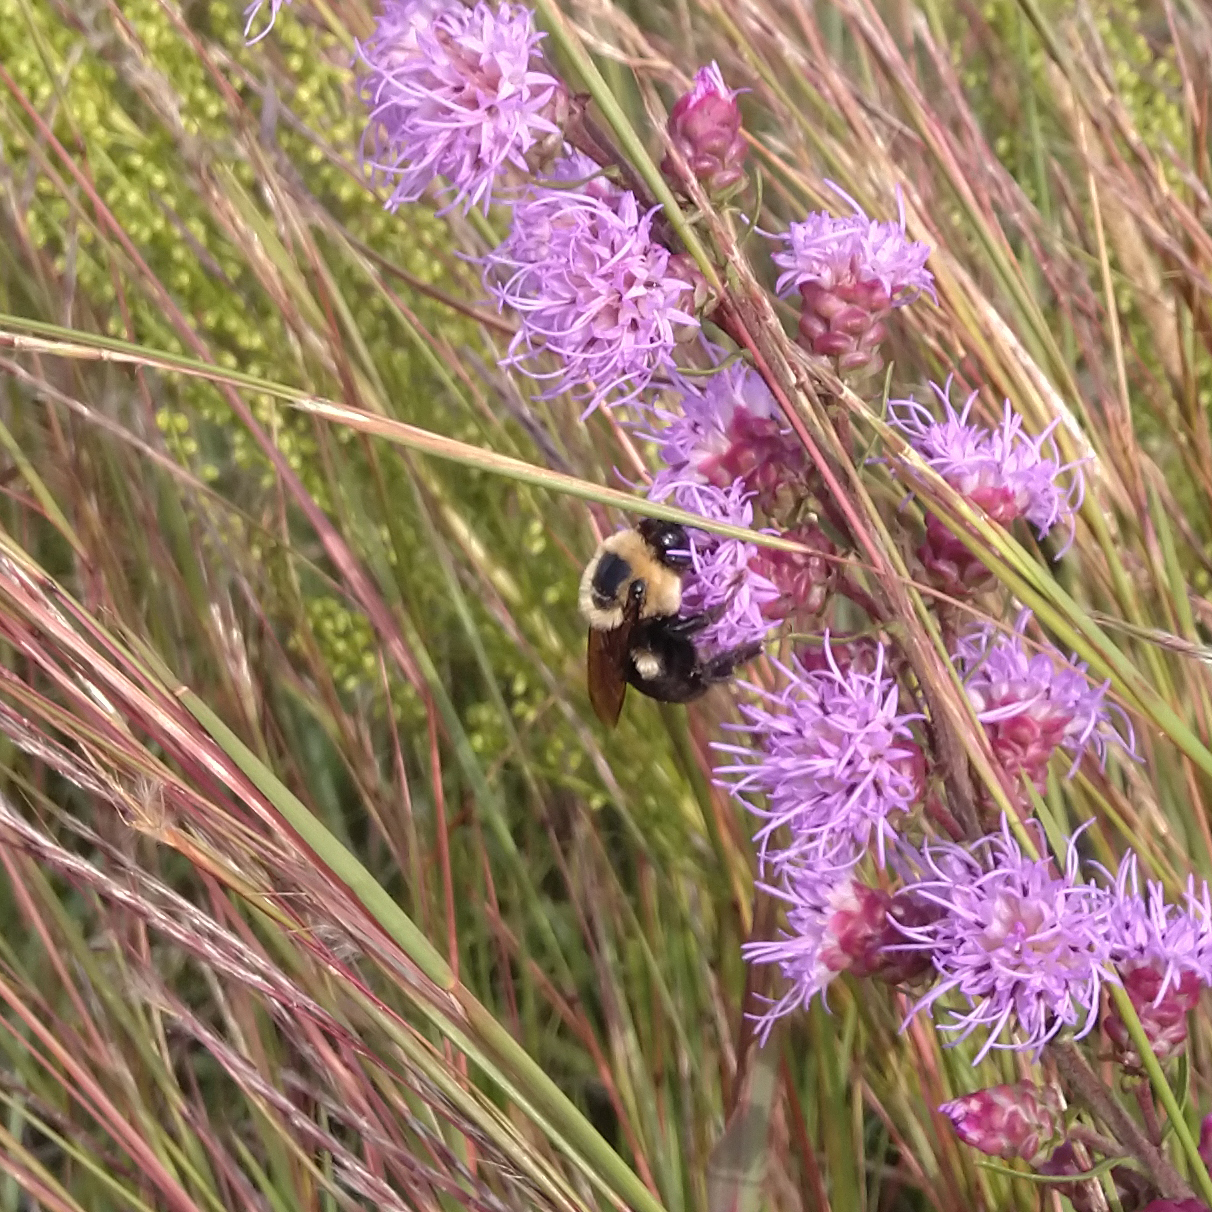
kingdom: Animalia
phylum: Arthropoda
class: Insecta
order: Hymenoptera
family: Apidae
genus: Bombus
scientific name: Bombus griseocollis
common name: Brown-belted bumble bee
